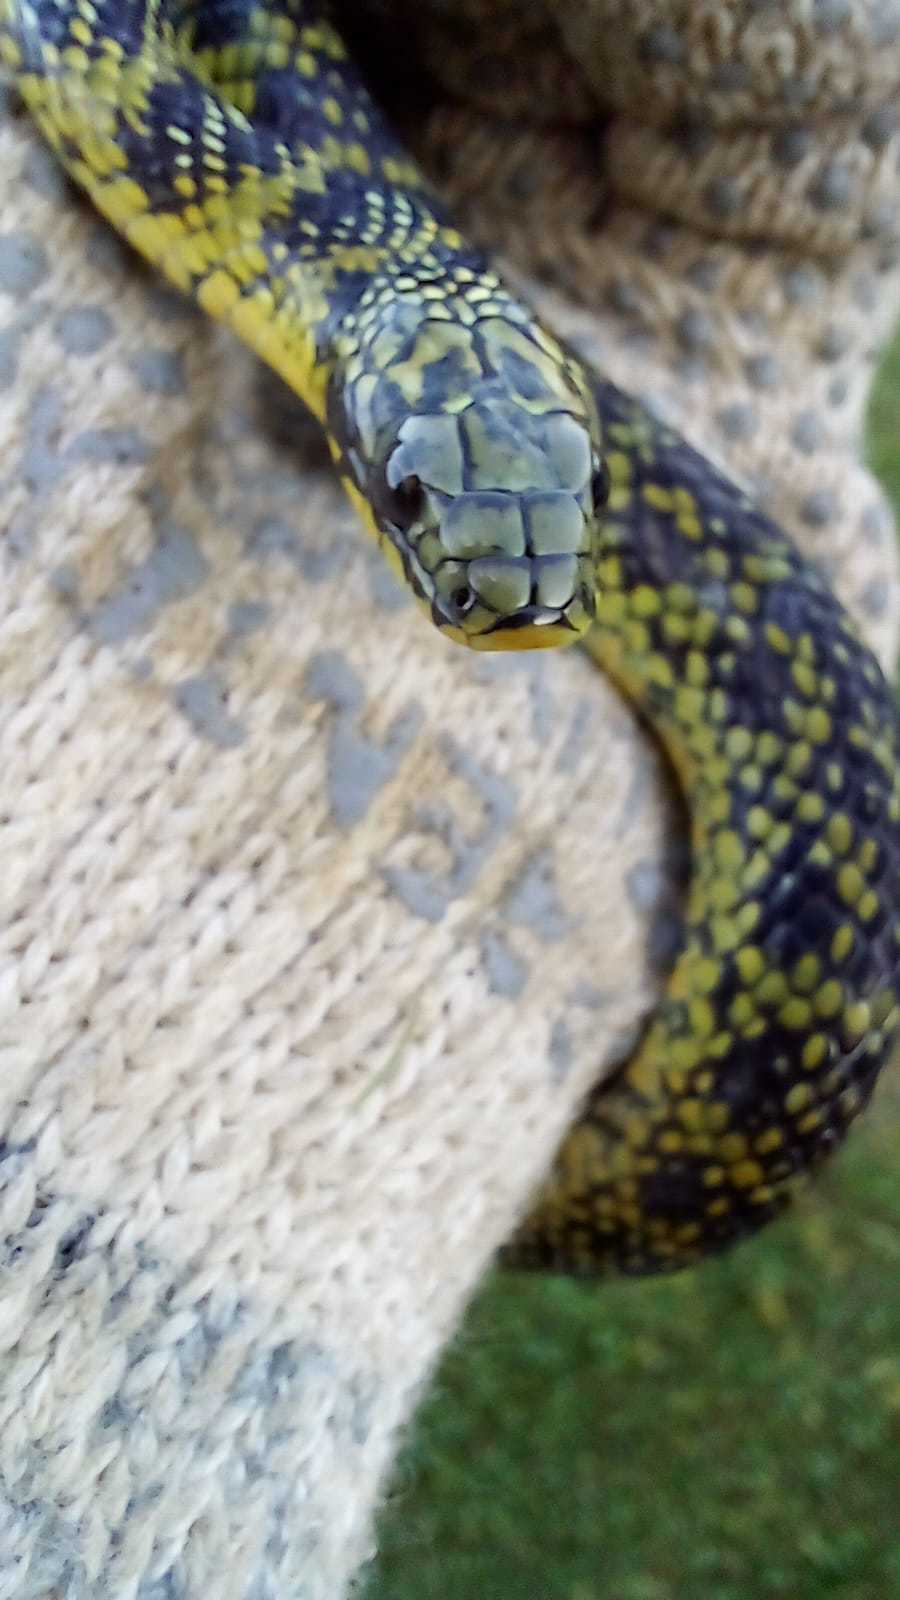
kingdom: Animalia
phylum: Chordata
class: Squamata
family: Colubridae
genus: Erythrolamprus
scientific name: Erythrolamprus poecilogyrus
